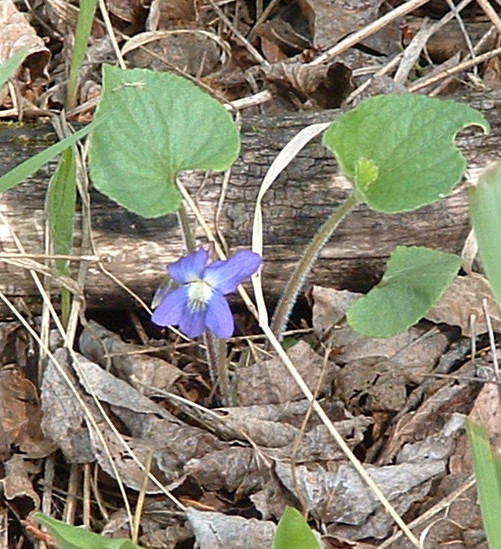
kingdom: Plantae
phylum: Tracheophyta
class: Magnoliopsida
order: Malpighiales
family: Violaceae
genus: Viola
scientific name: Viola adunca
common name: Sand violet
